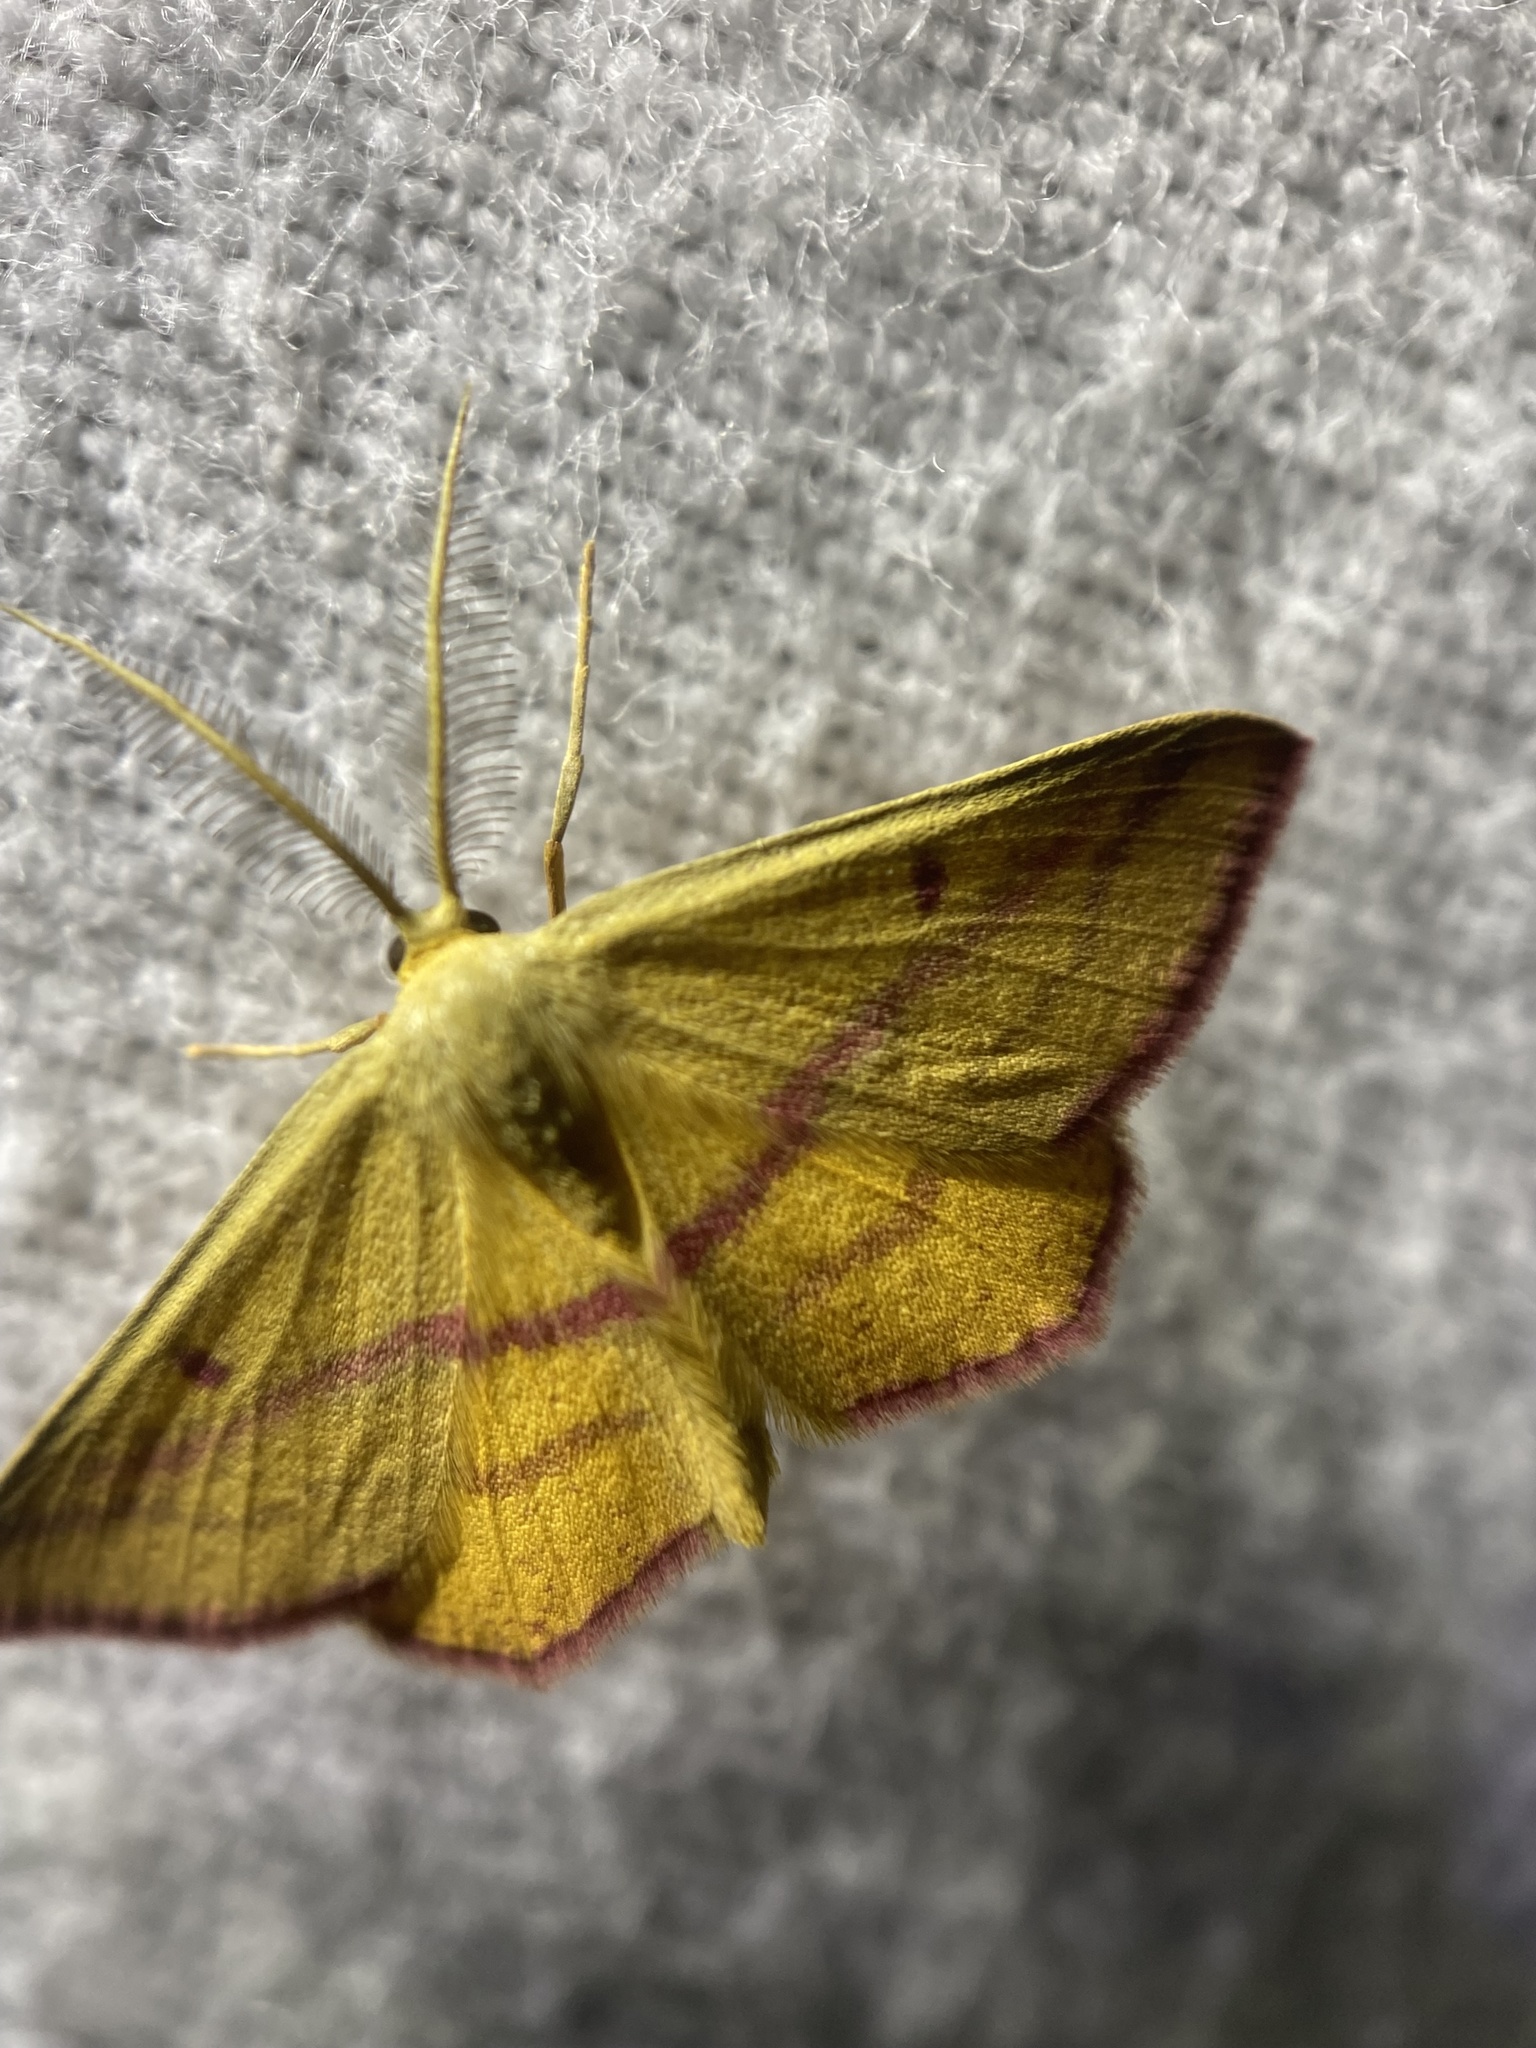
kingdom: Animalia
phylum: Arthropoda
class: Insecta
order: Lepidoptera
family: Geometridae
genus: Haematopis
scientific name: Haematopis grataria
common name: Chickweed geometer
